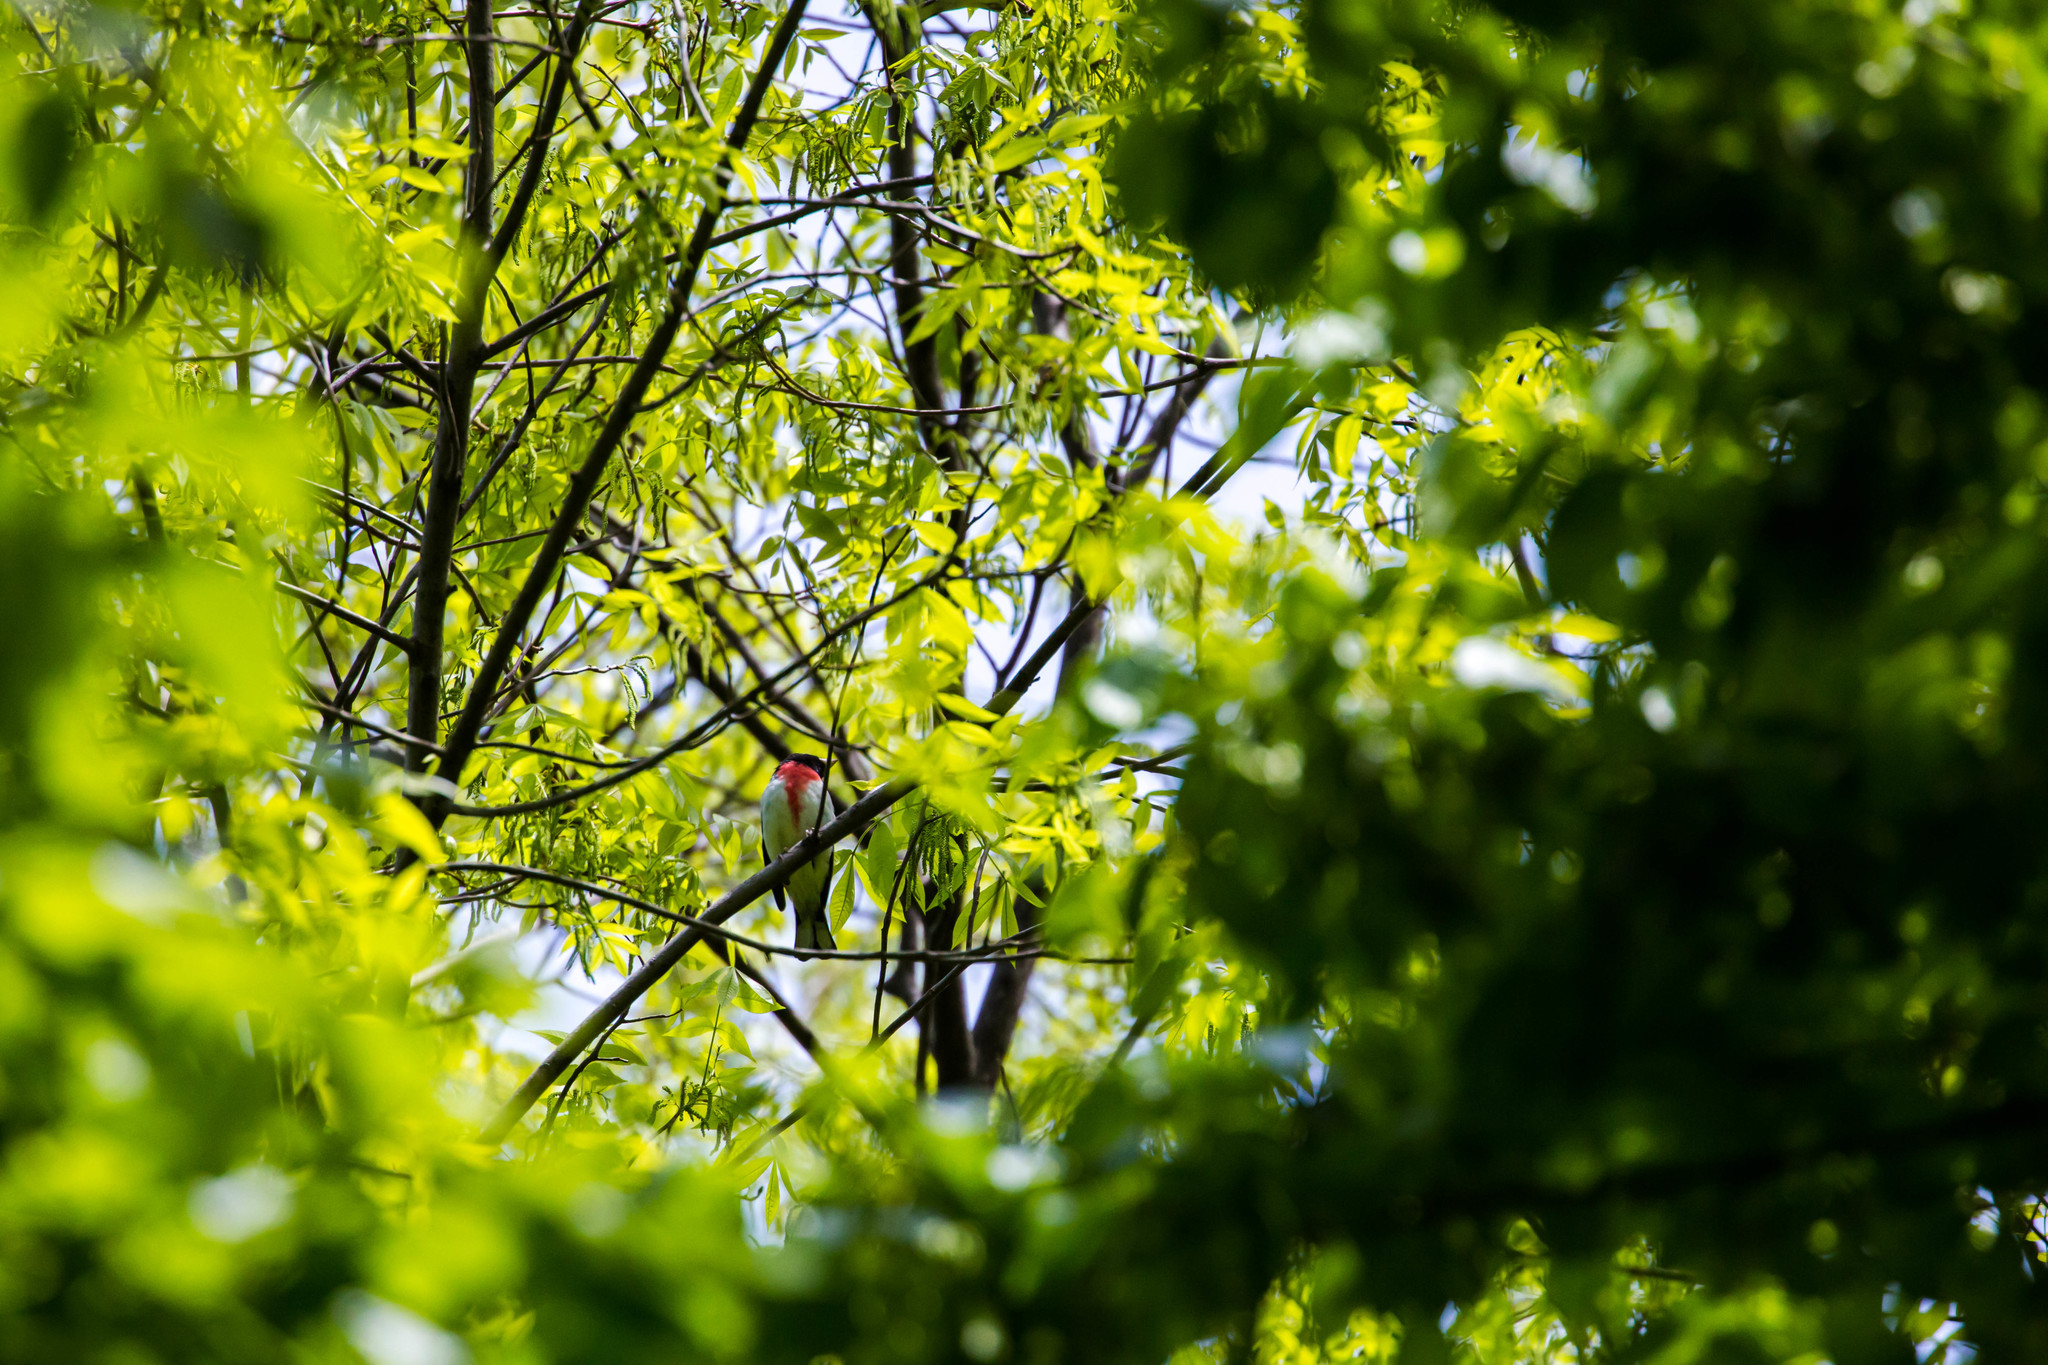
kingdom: Animalia
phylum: Chordata
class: Aves
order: Passeriformes
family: Cardinalidae
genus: Pheucticus
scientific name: Pheucticus ludovicianus
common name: Rose-breasted grosbeak
